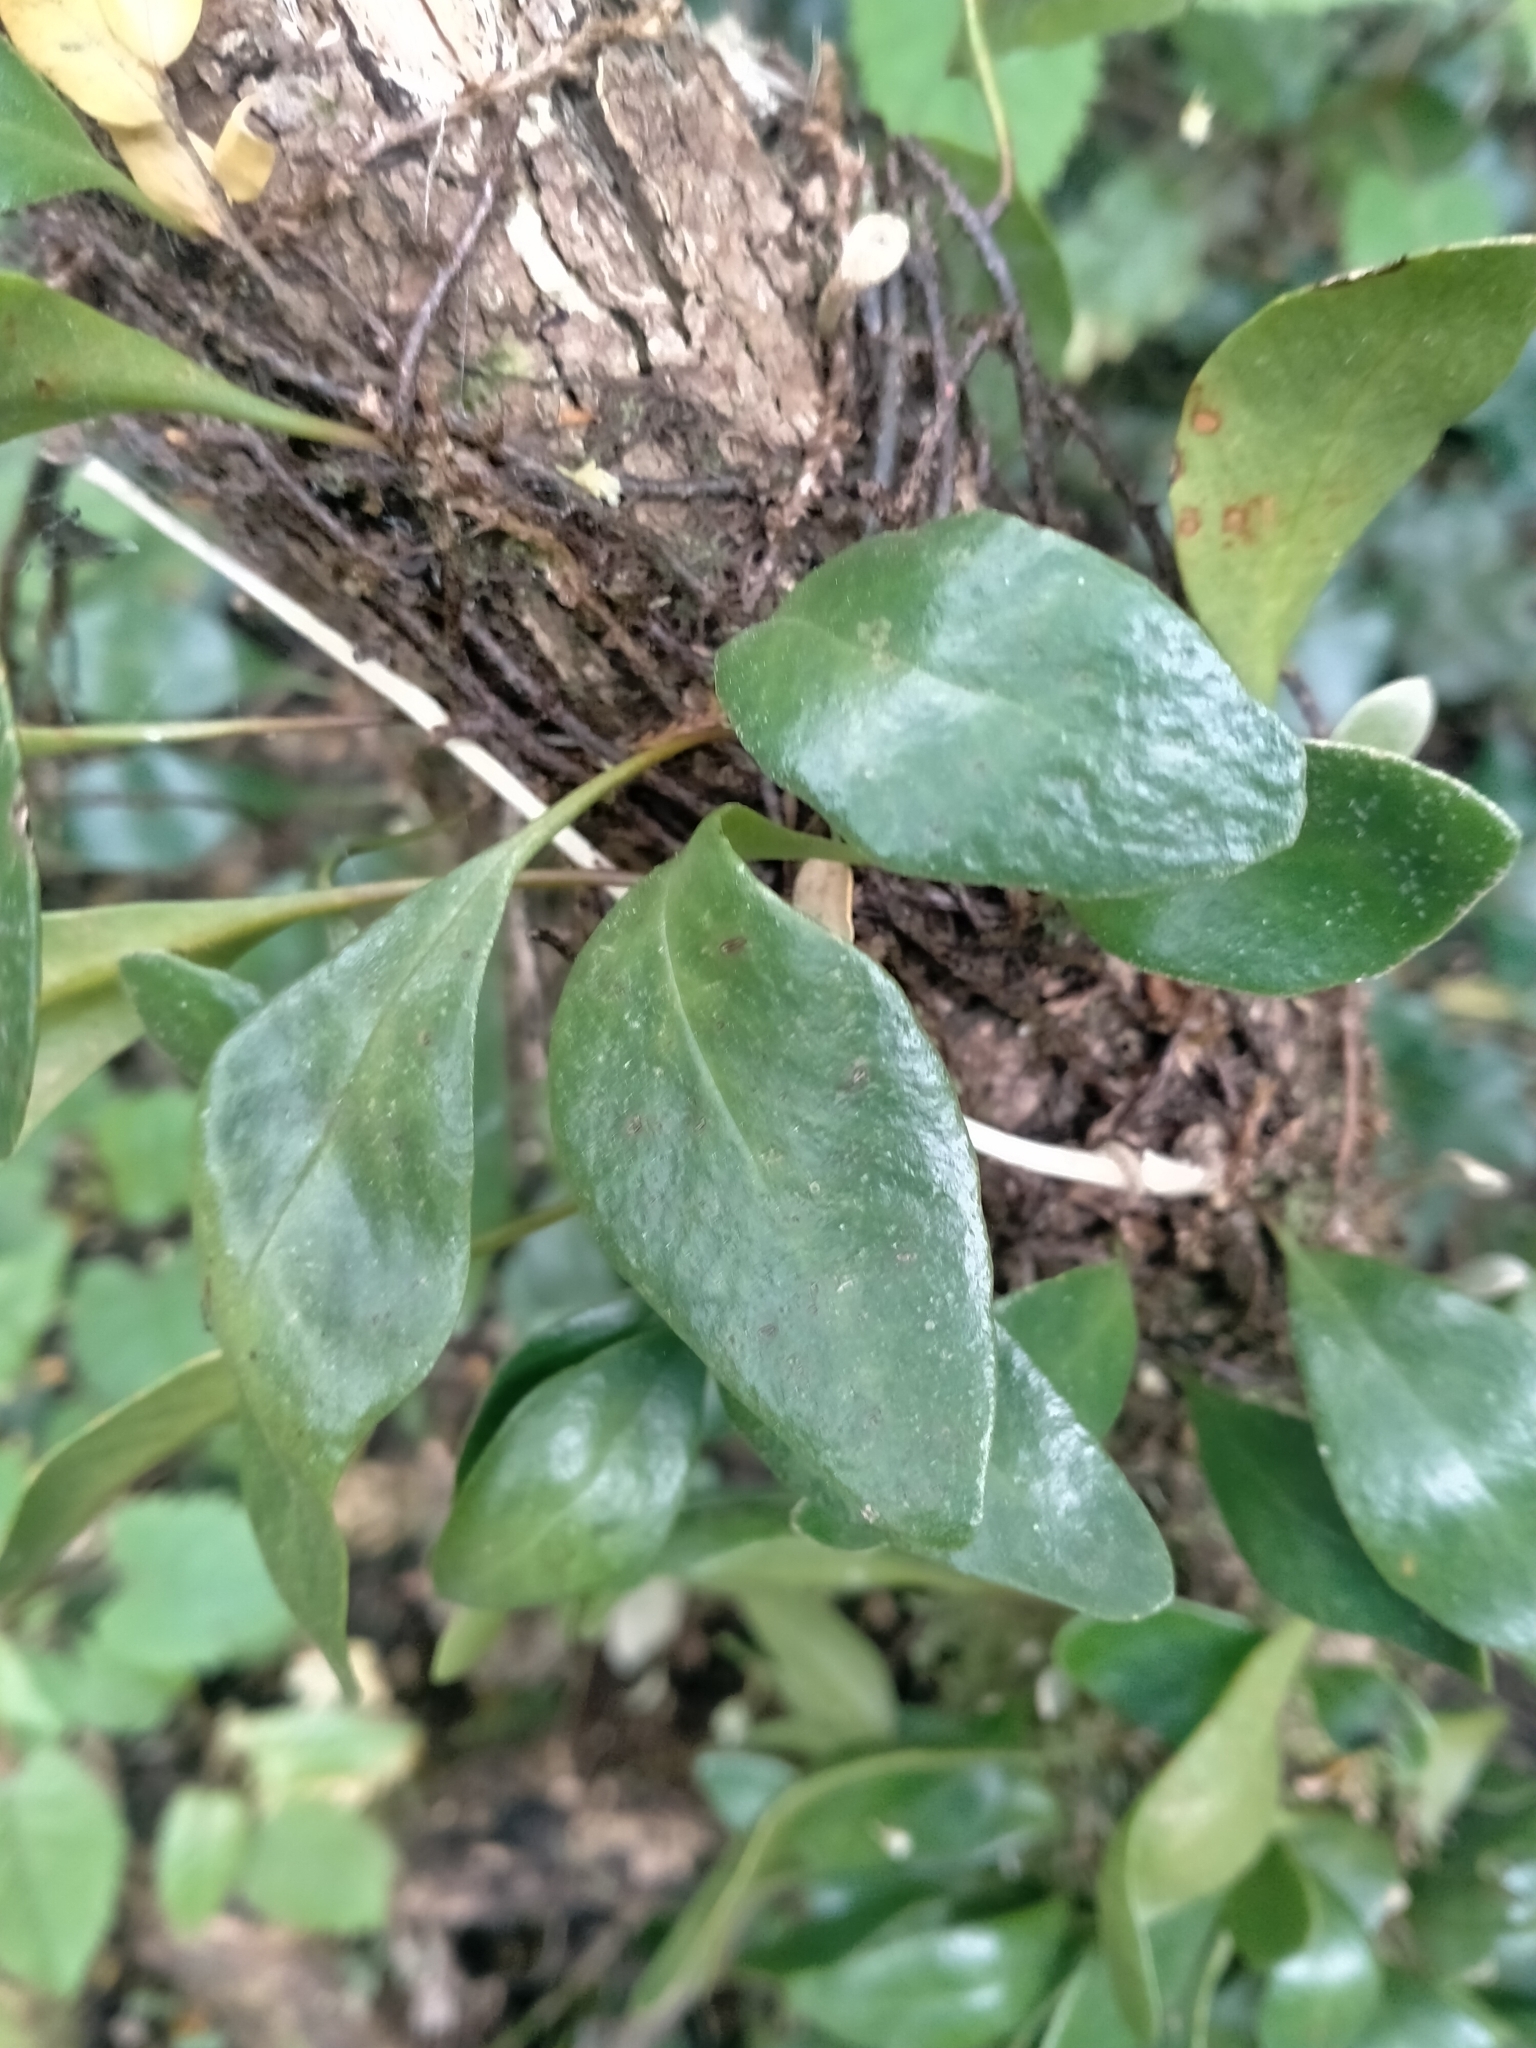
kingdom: Plantae
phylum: Tracheophyta
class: Polypodiopsida
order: Polypodiales
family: Polypodiaceae
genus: Pyrrosia
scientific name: Pyrrosia eleagnifolia
